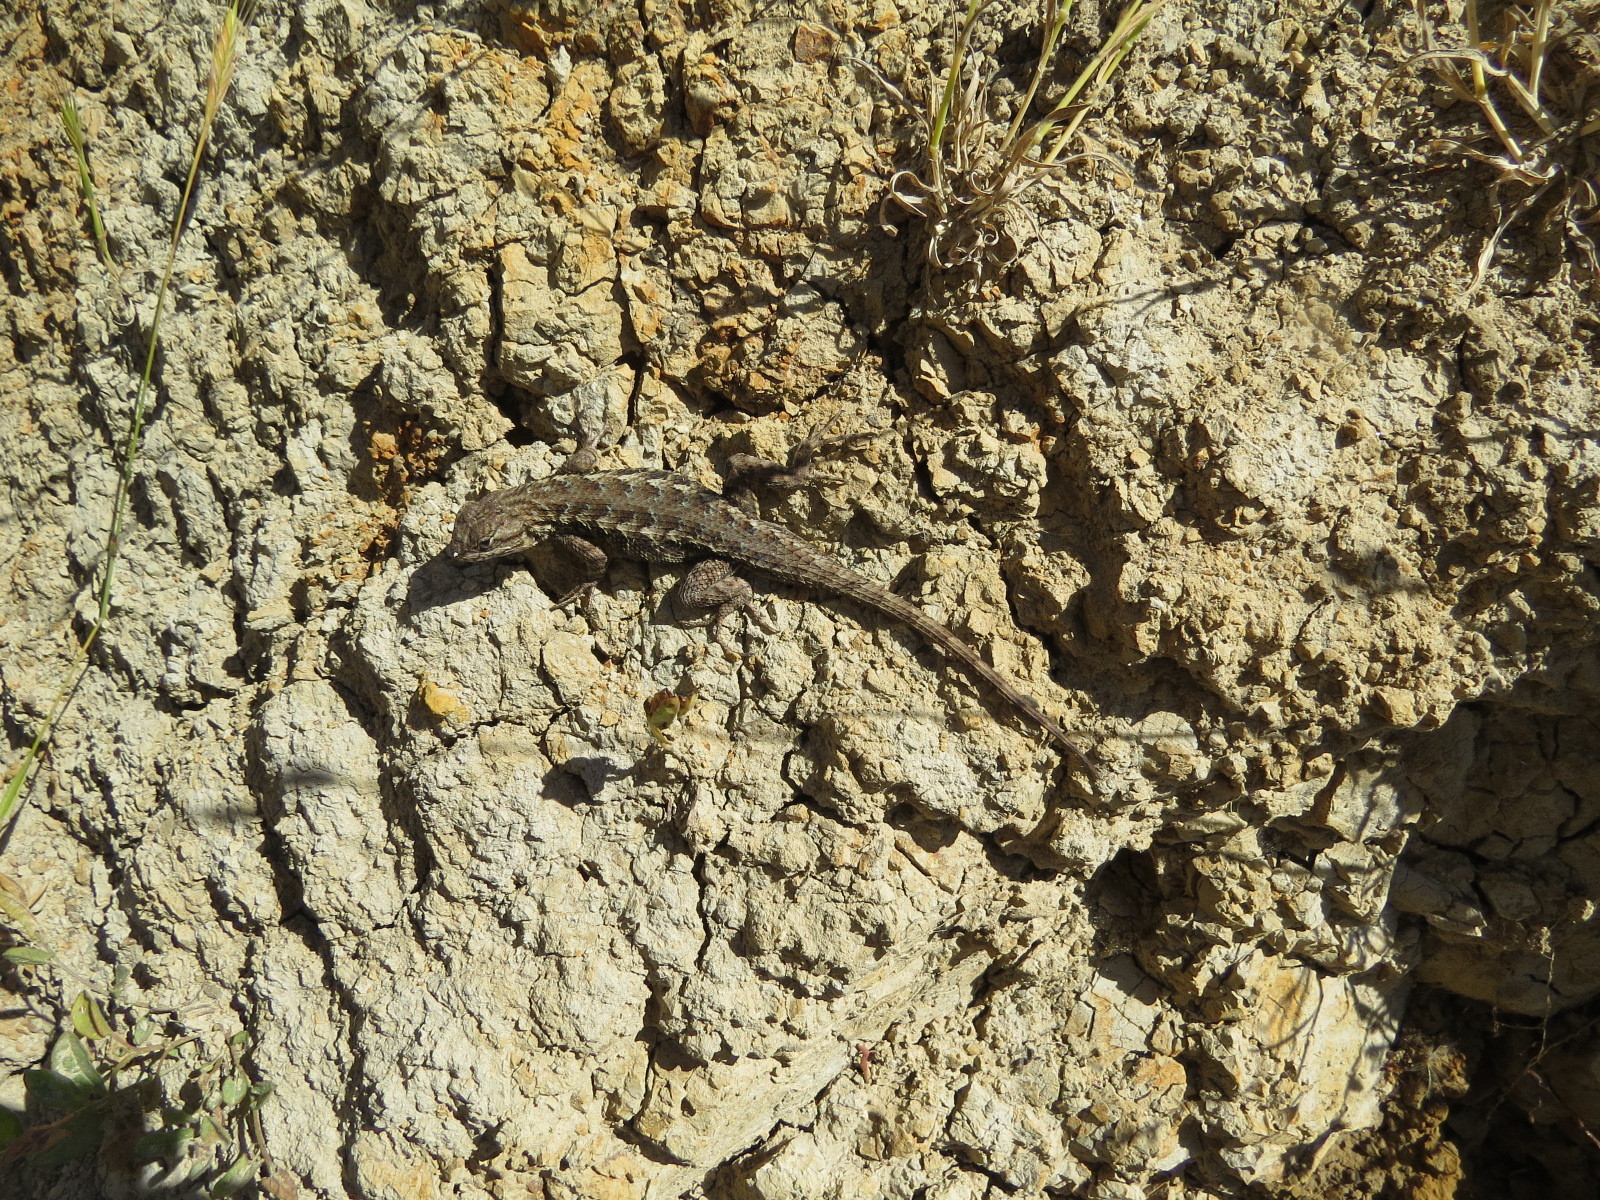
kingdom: Animalia
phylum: Chordata
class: Squamata
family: Phrynosomatidae
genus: Sceloporus
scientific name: Sceloporus occidentalis
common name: Western fence lizard
